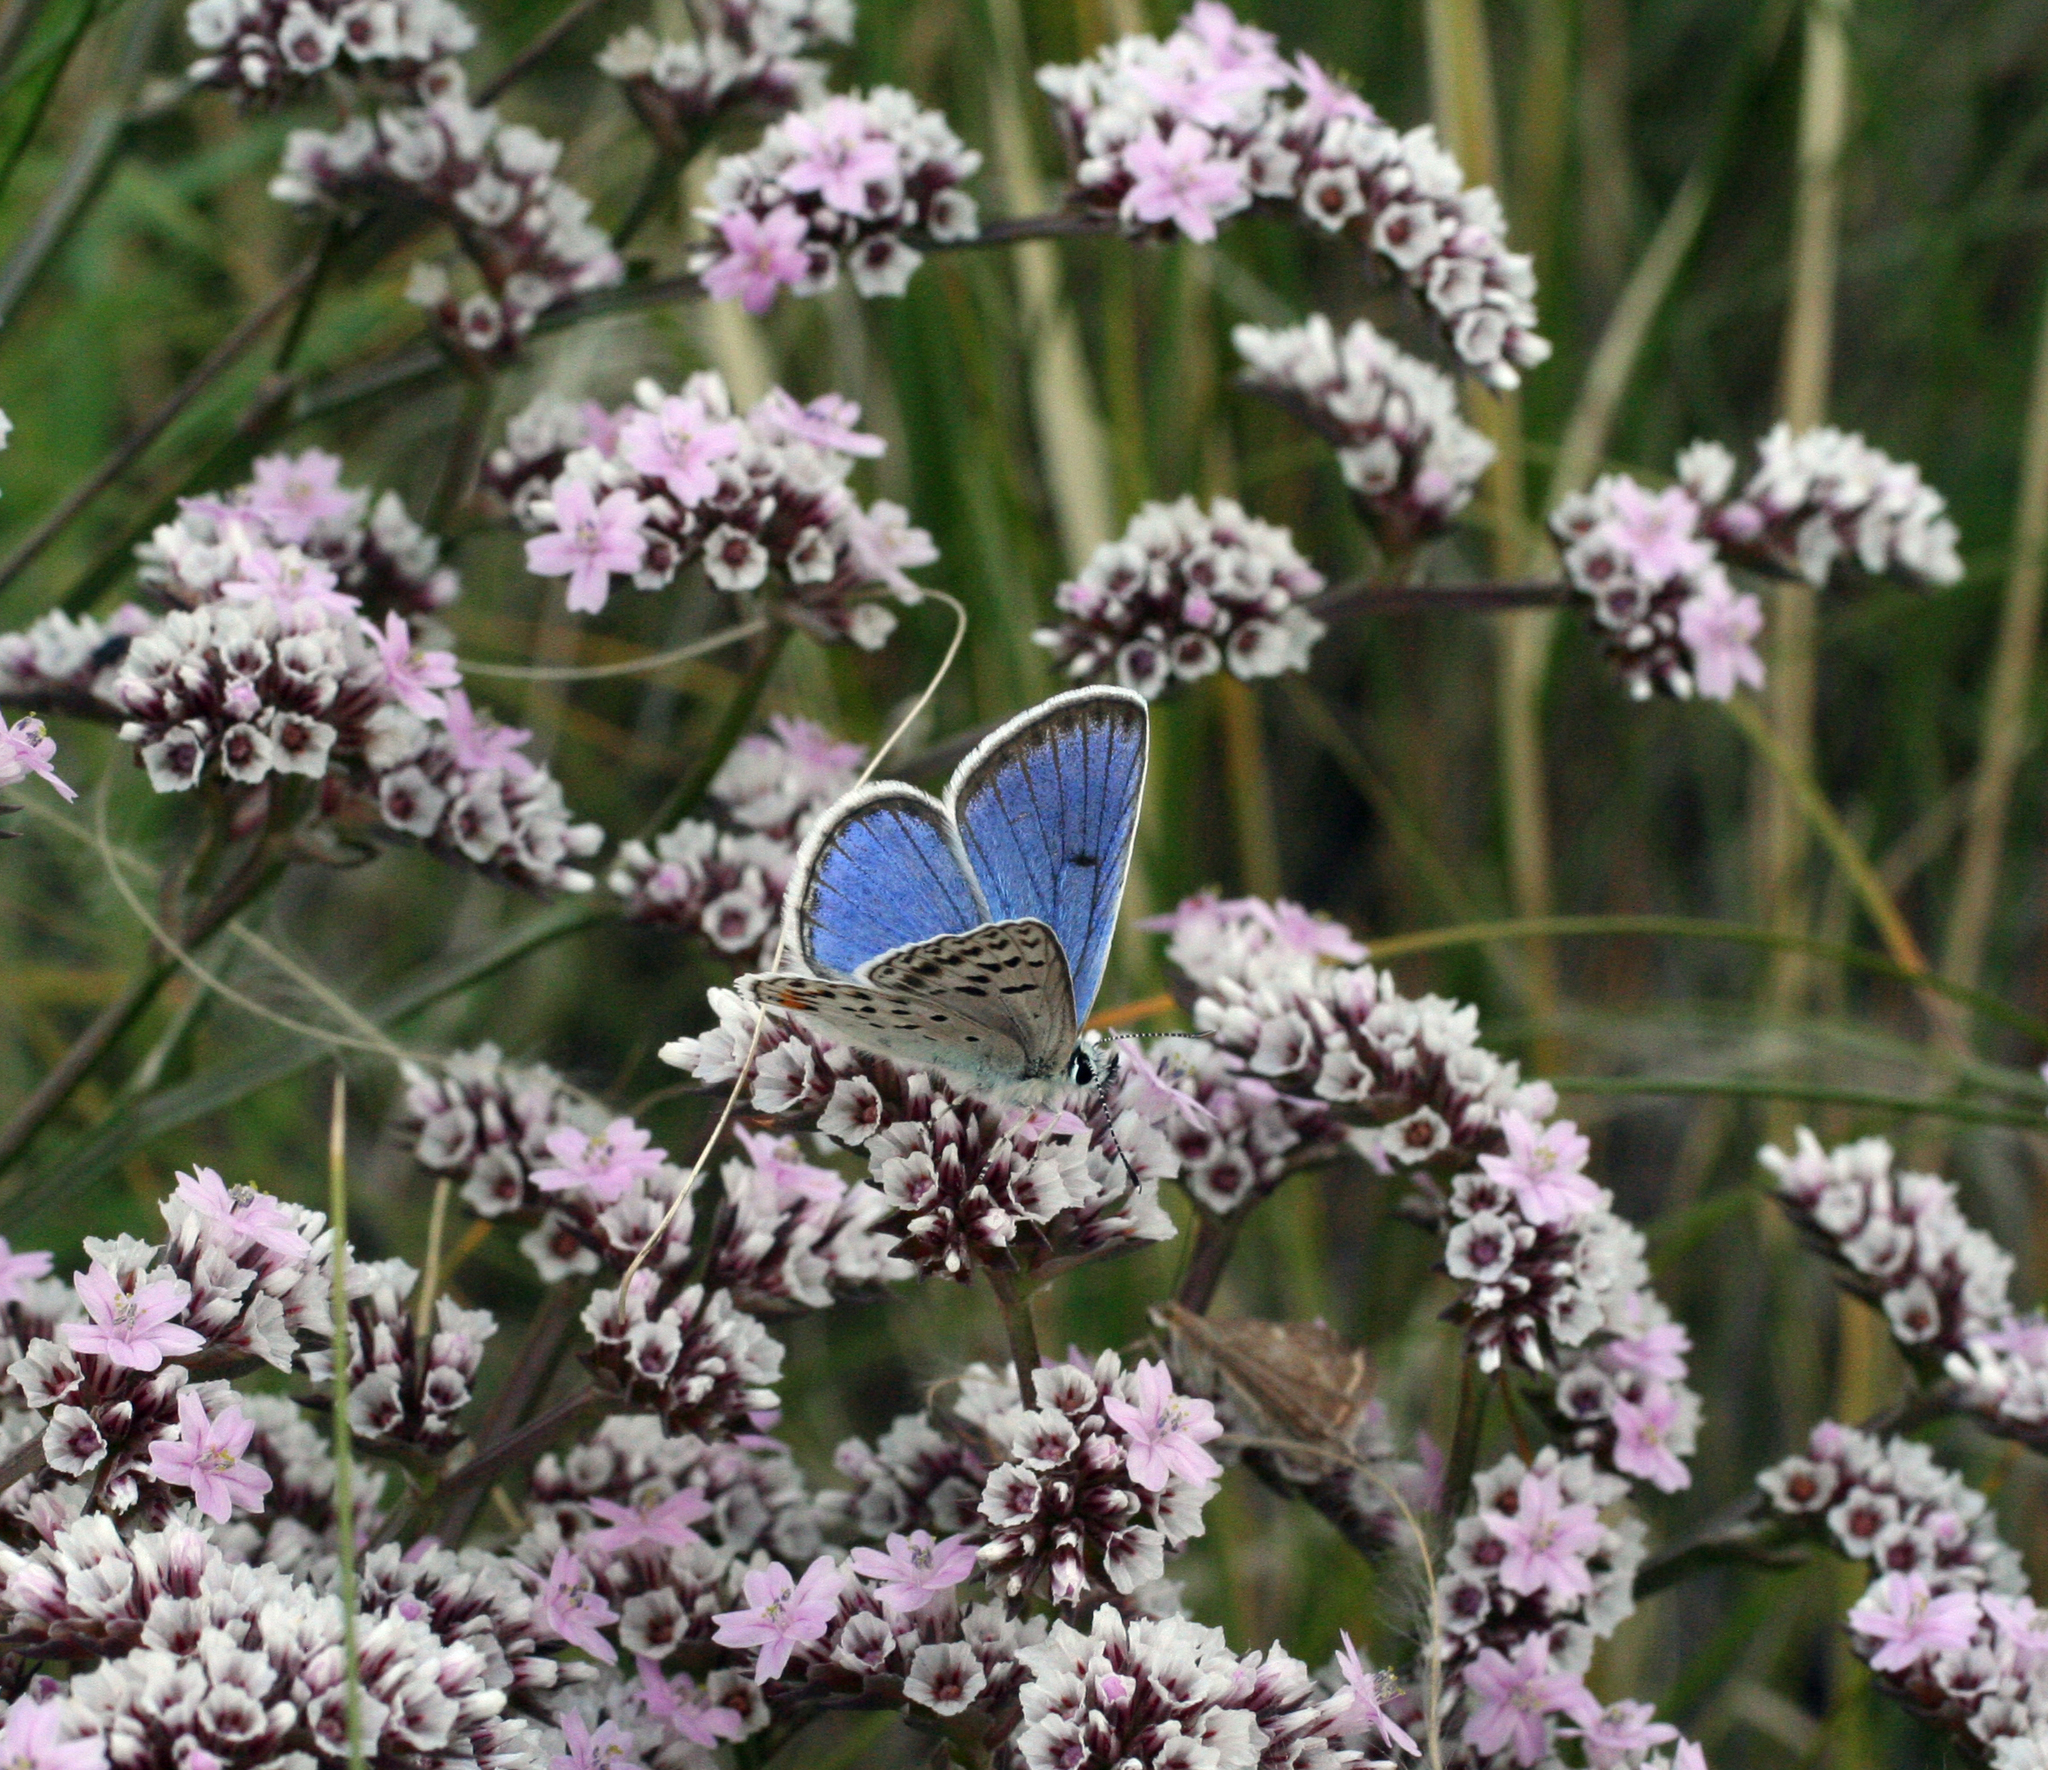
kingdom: Animalia
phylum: Arthropoda
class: Insecta
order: Lepidoptera
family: Lycaenidae
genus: Glabroculus
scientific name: Glabroculus cyane
